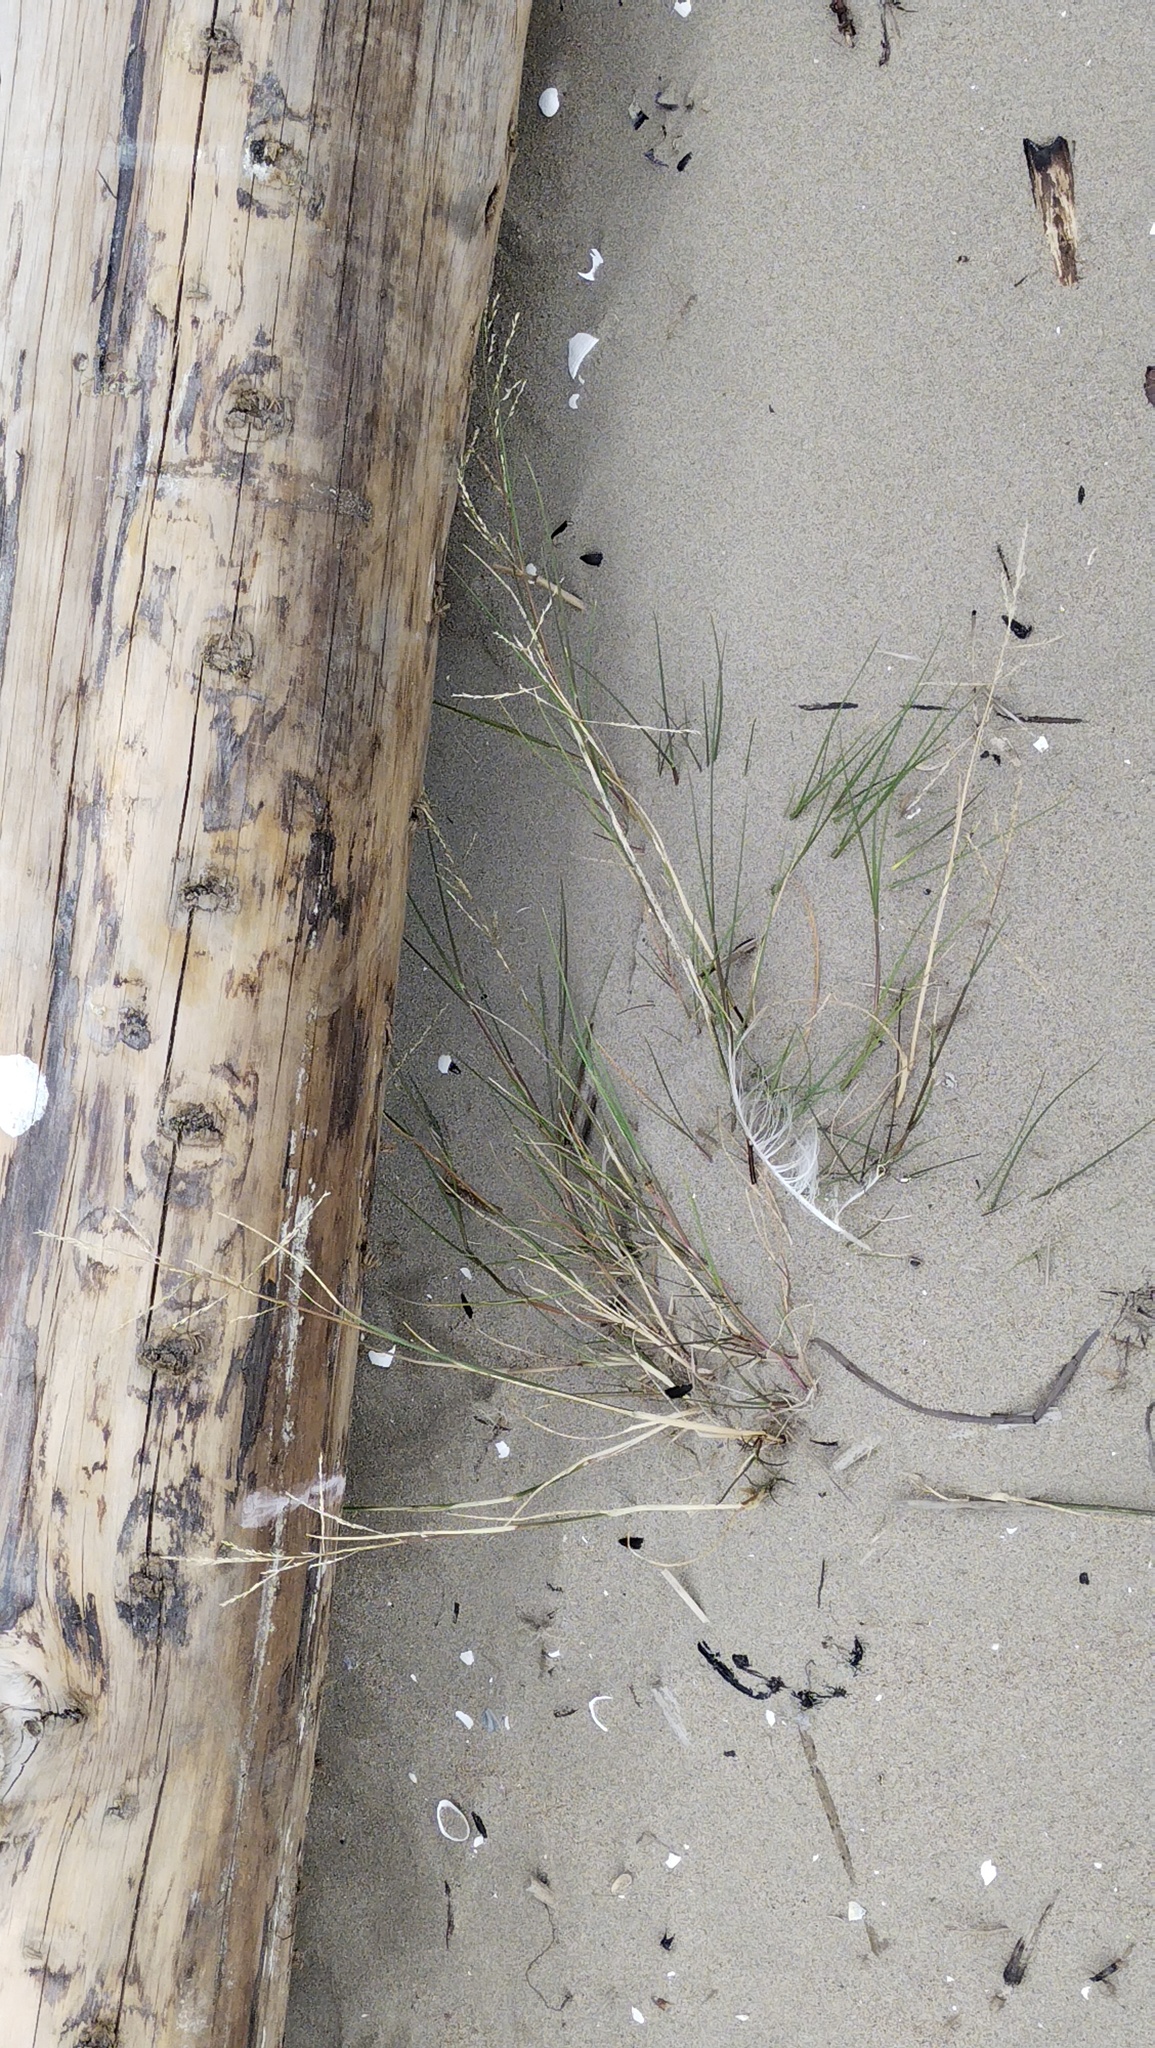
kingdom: Plantae
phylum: Tracheophyta
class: Liliopsida
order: Poales
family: Poaceae
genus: Agrostis
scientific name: Agrostis stolonifera
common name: Creeping bentgrass
